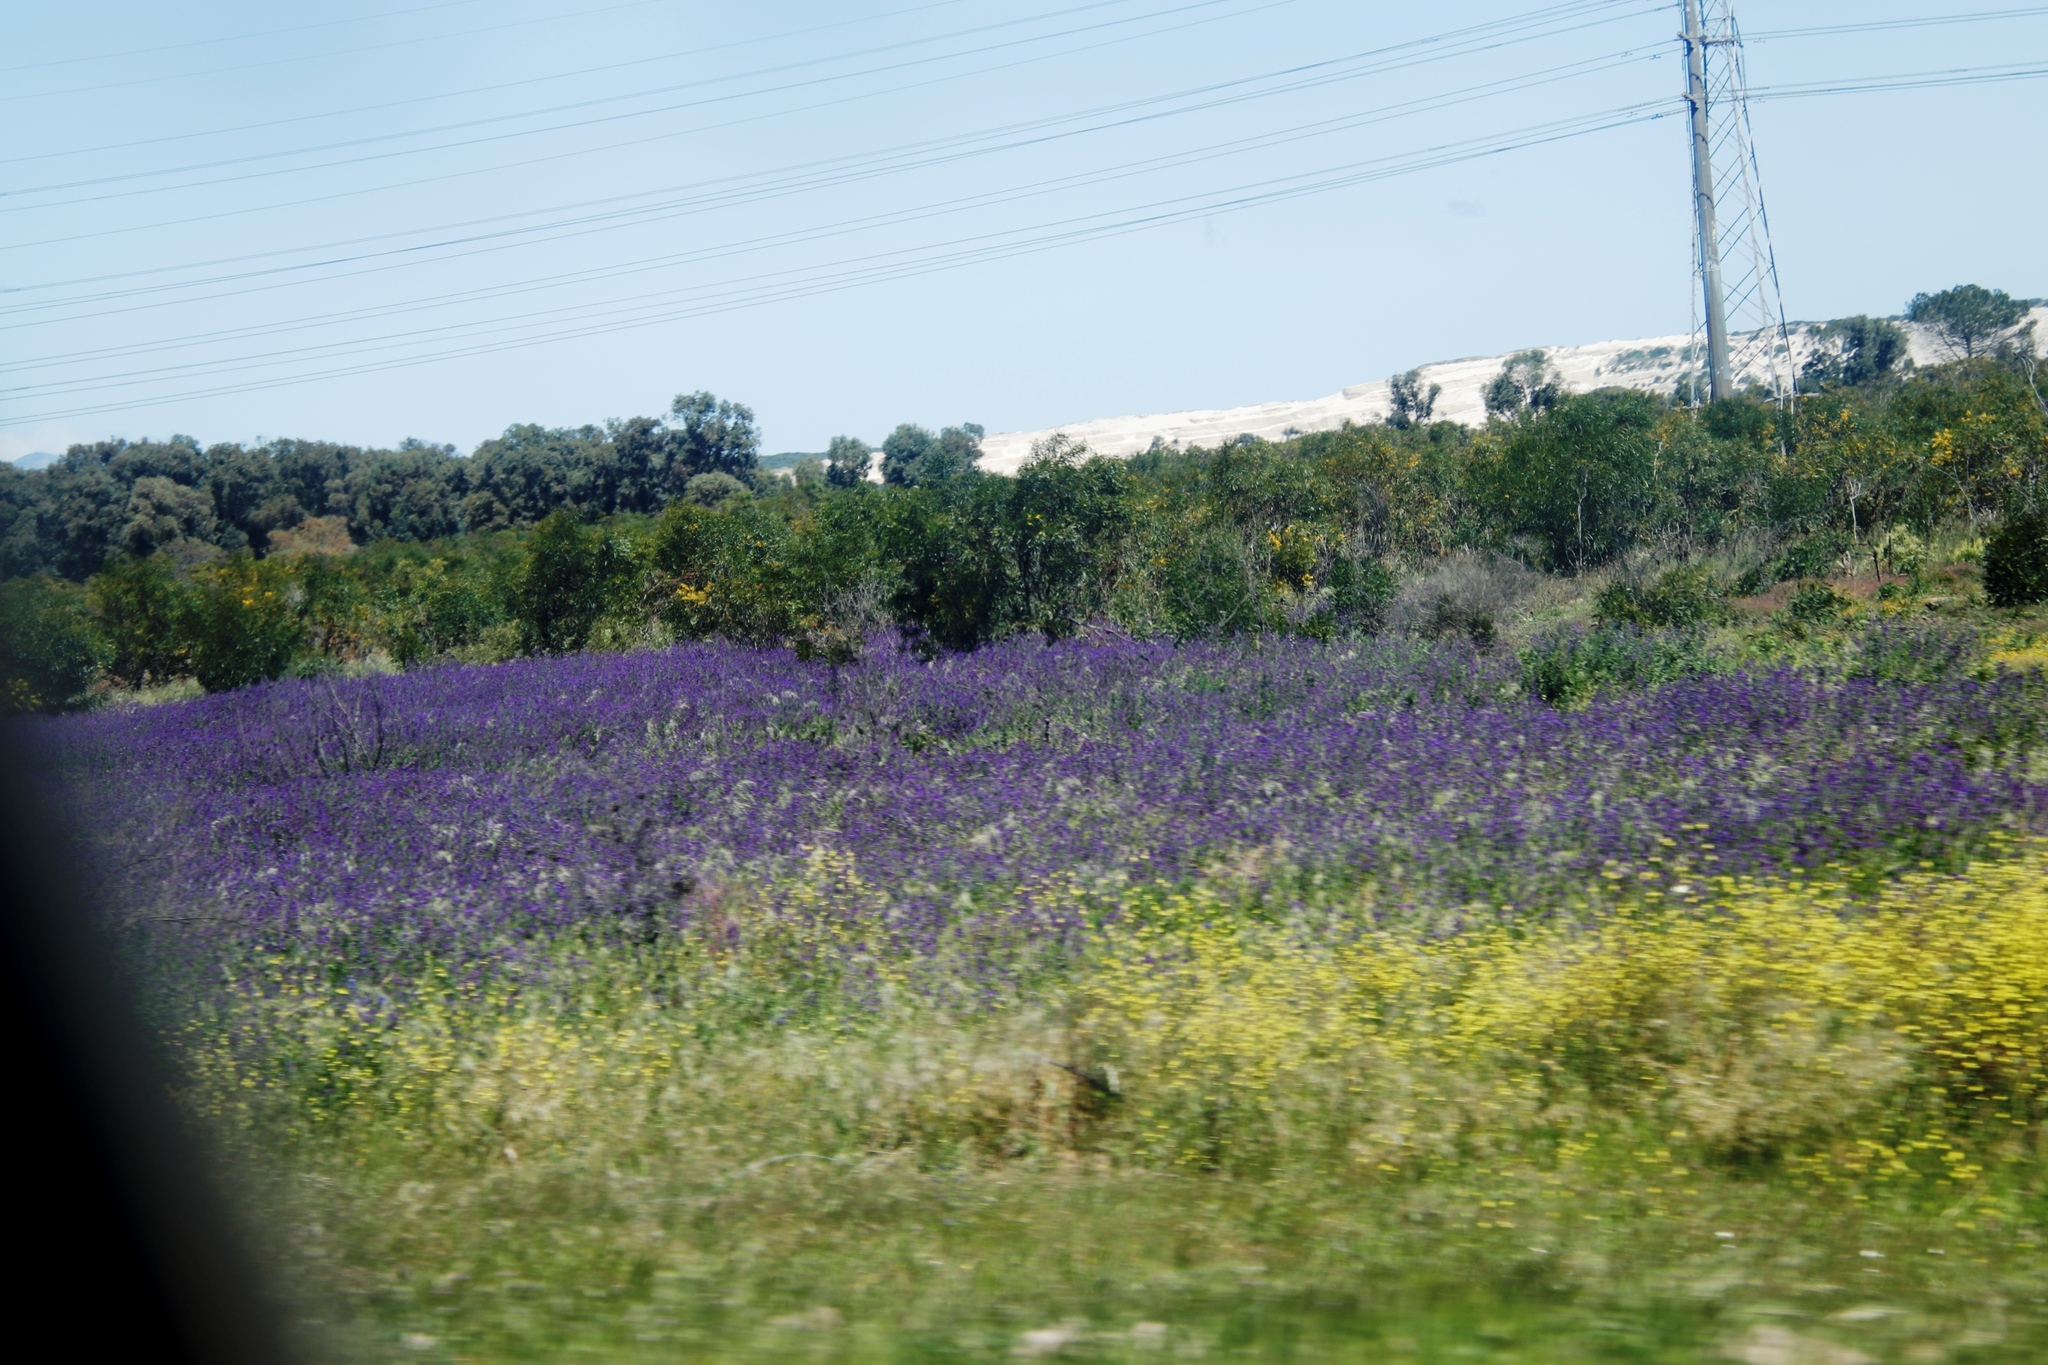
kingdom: Plantae
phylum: Tracheophyta
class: Magnoliopsida
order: Boraginales
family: Boraginaceae
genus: Echium
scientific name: Echium plantagineum
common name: Purple viper's-bugloss
